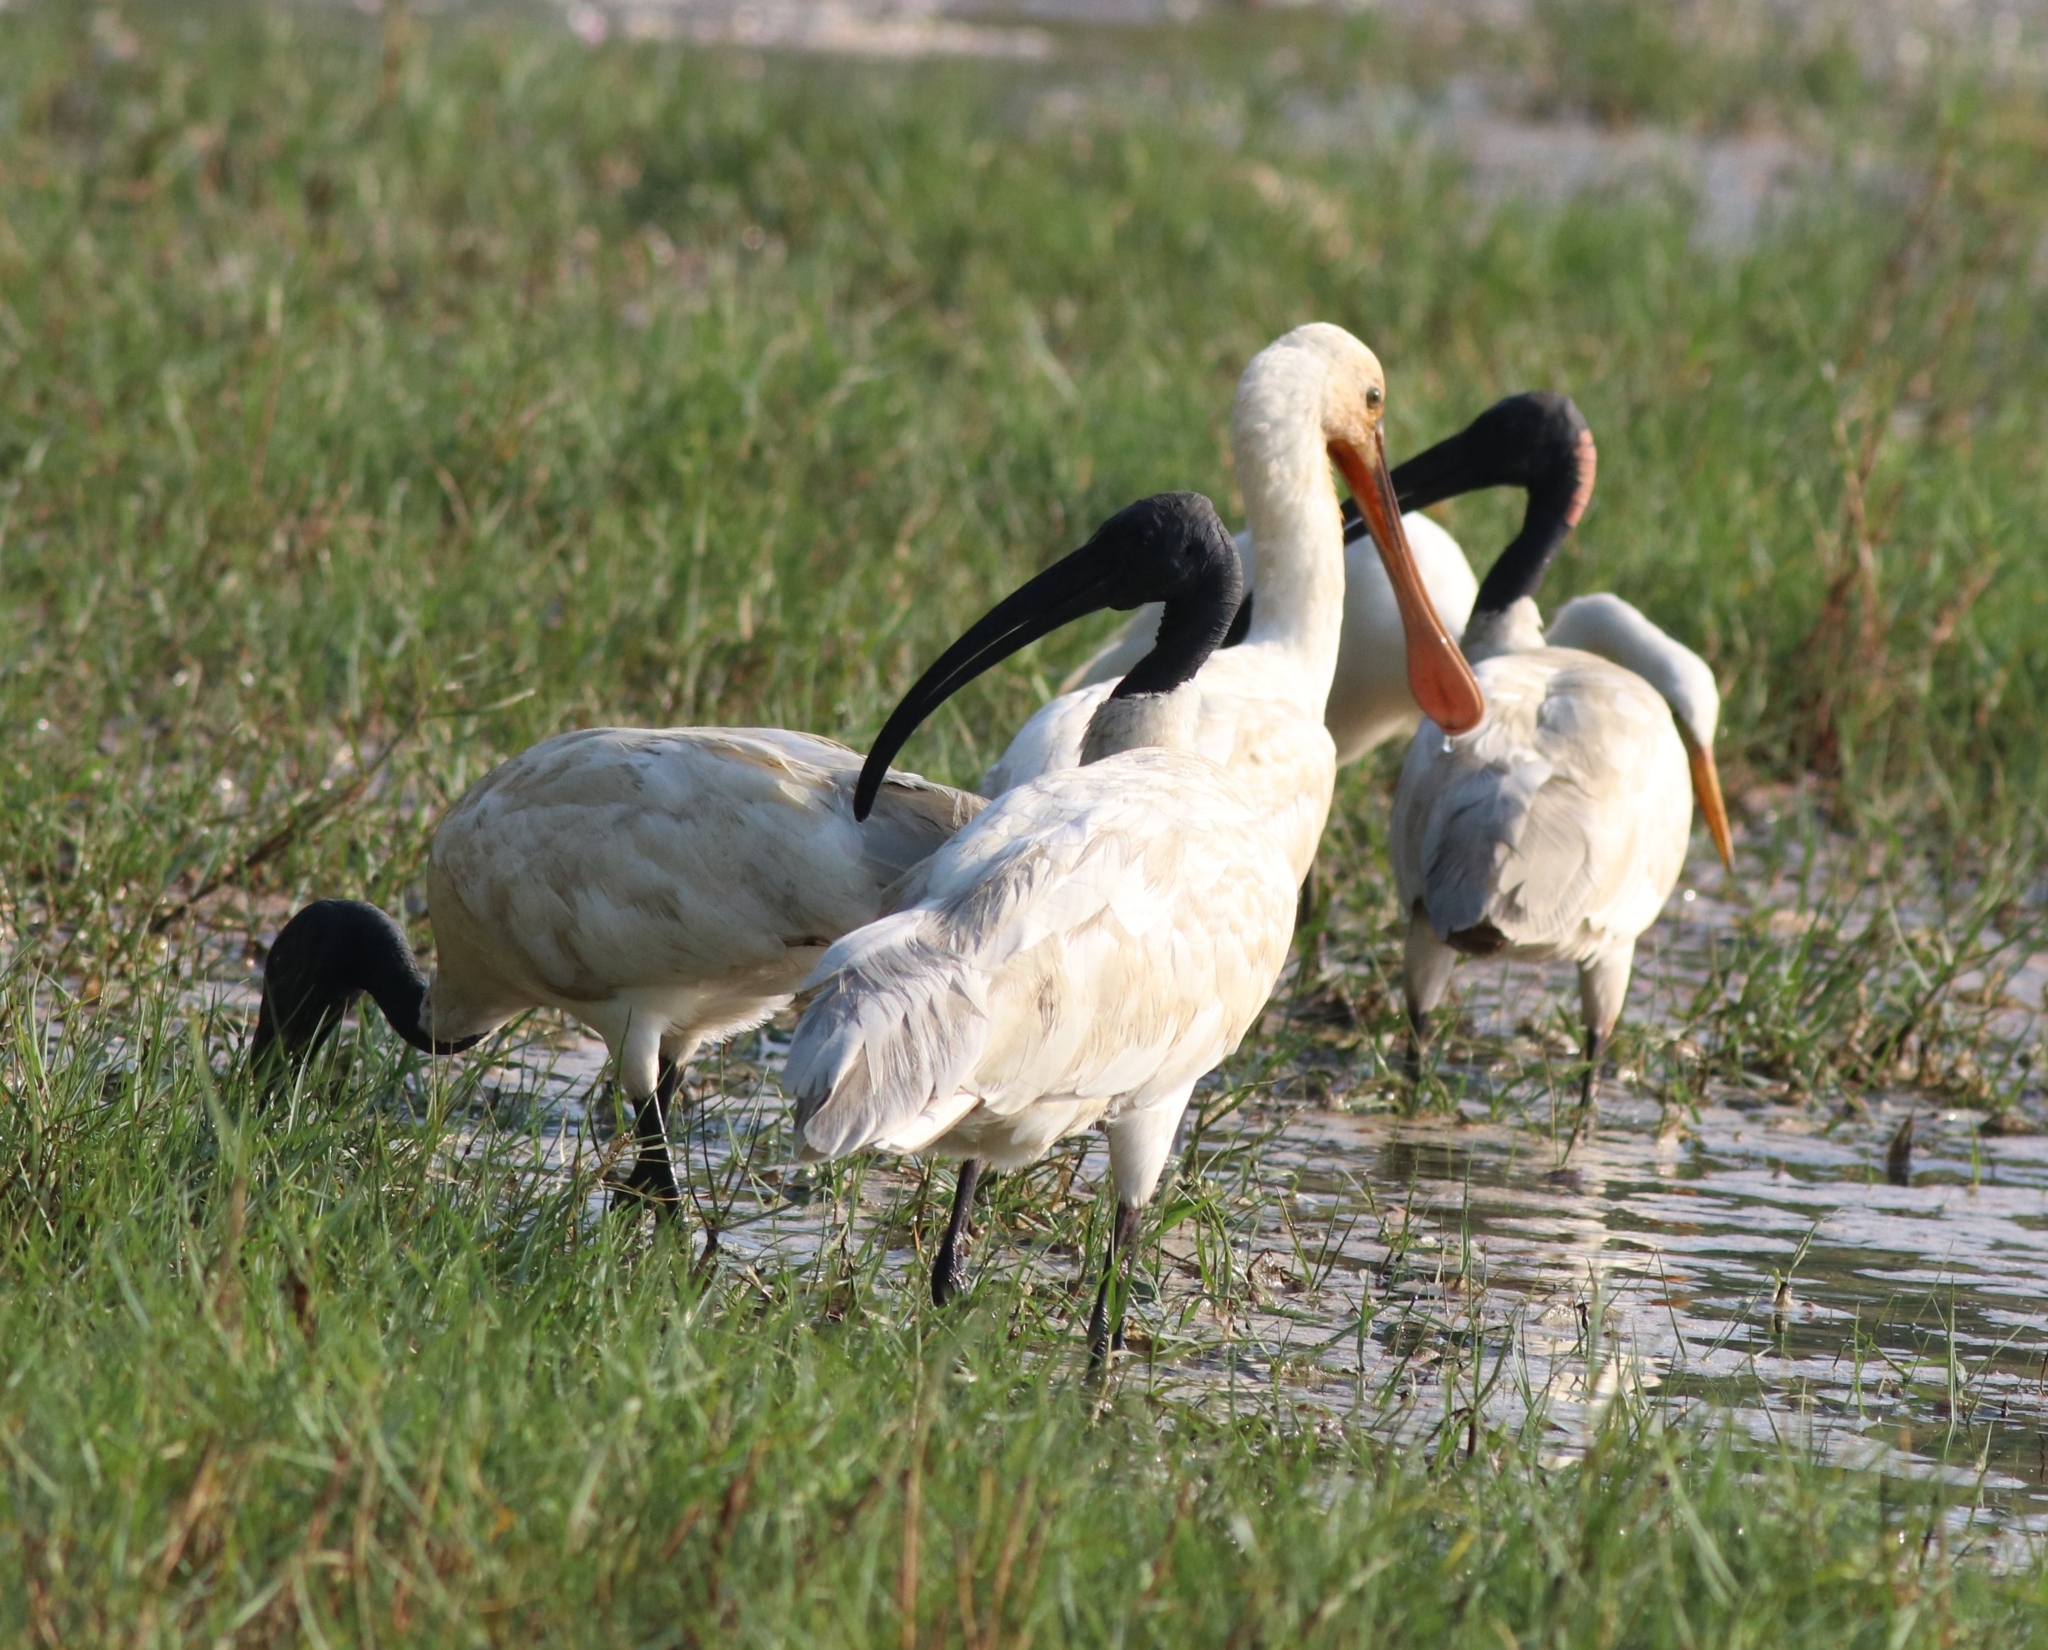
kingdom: Animalia
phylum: Chordata
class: Aves
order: Pelecaniformes
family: Threskiornithidae
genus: Platalea
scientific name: Platalea leucorodia
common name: Eurasian spoonbill
